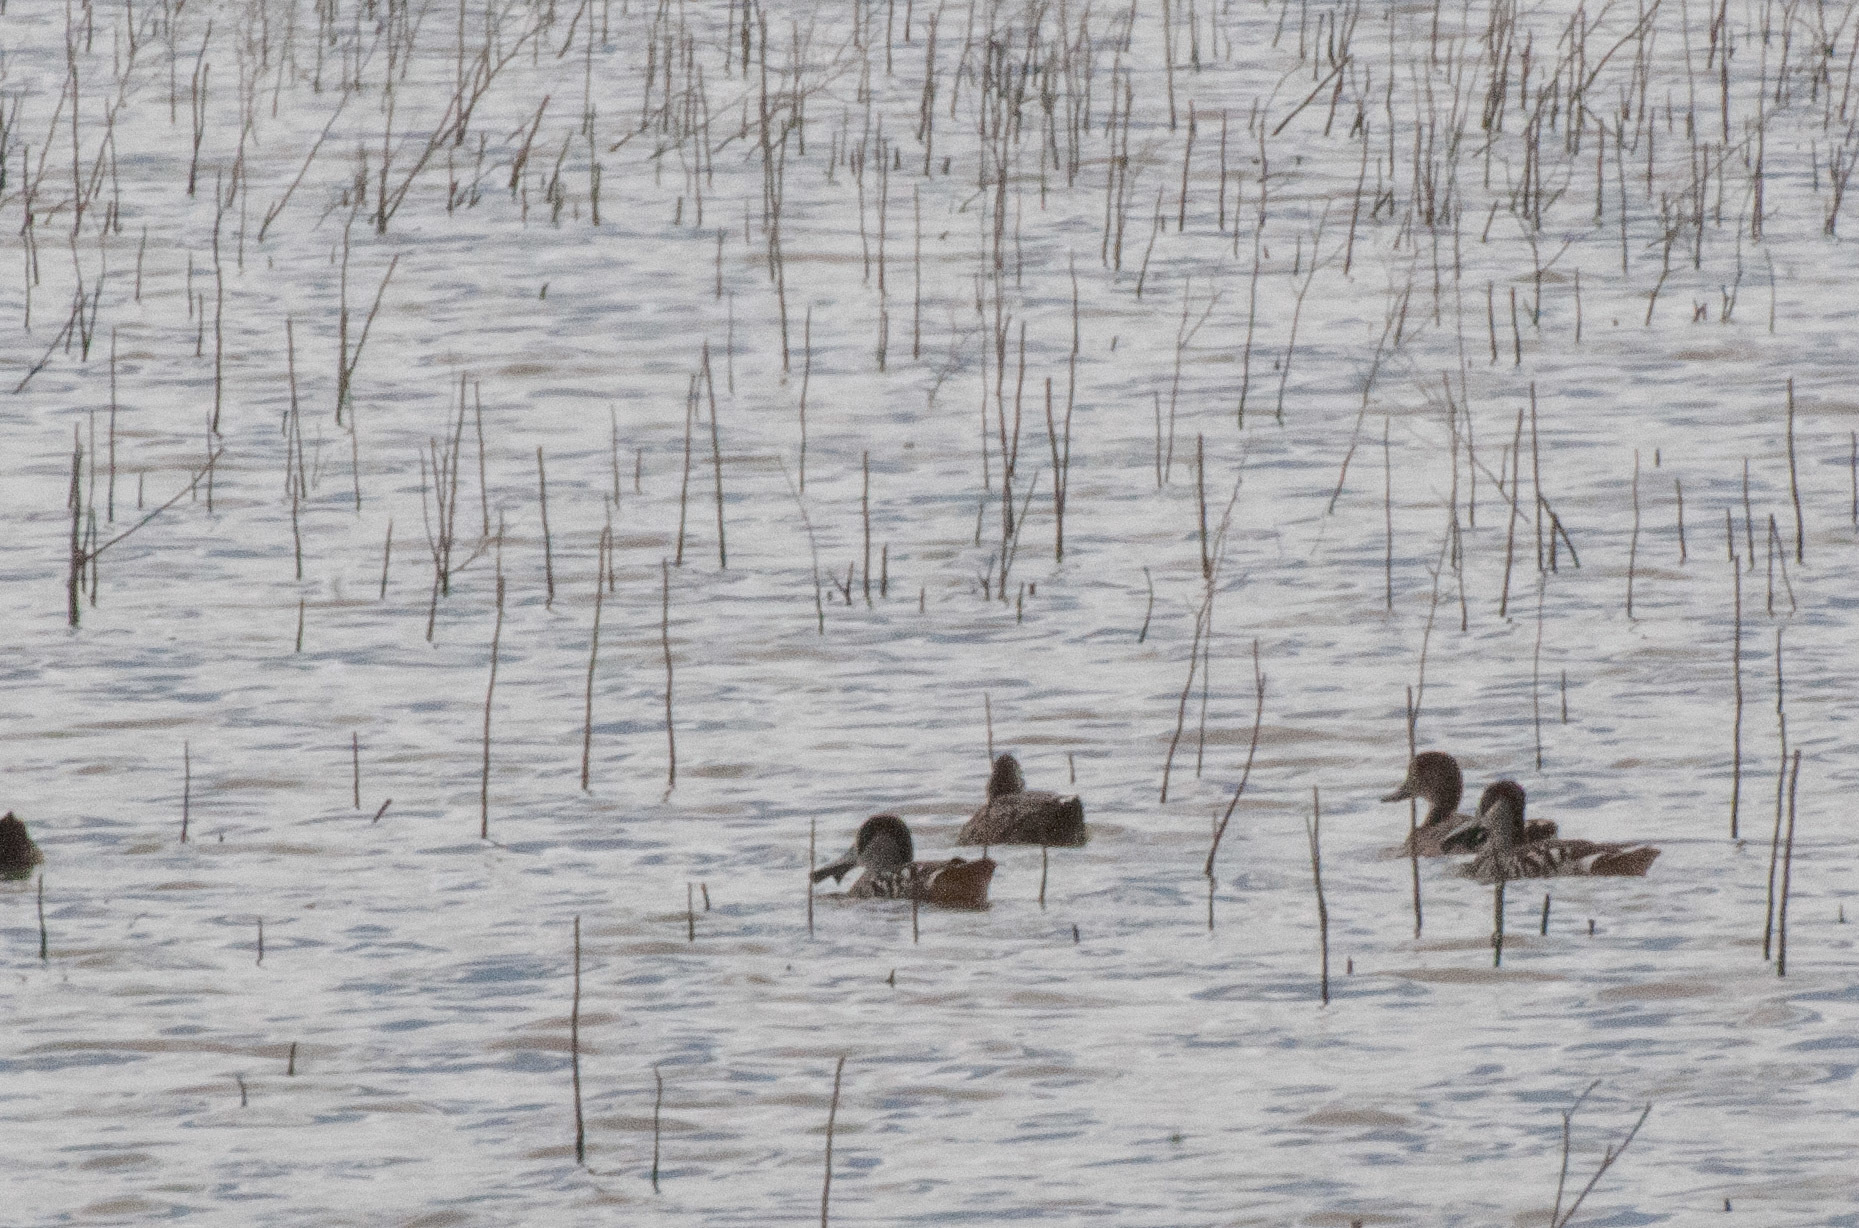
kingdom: Animalia
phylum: Chordata
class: Aves
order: Anseriformes
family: Anatidae
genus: Malacorhynchus
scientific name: Malacorhynchus membranaceus
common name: Pink-eared duck
